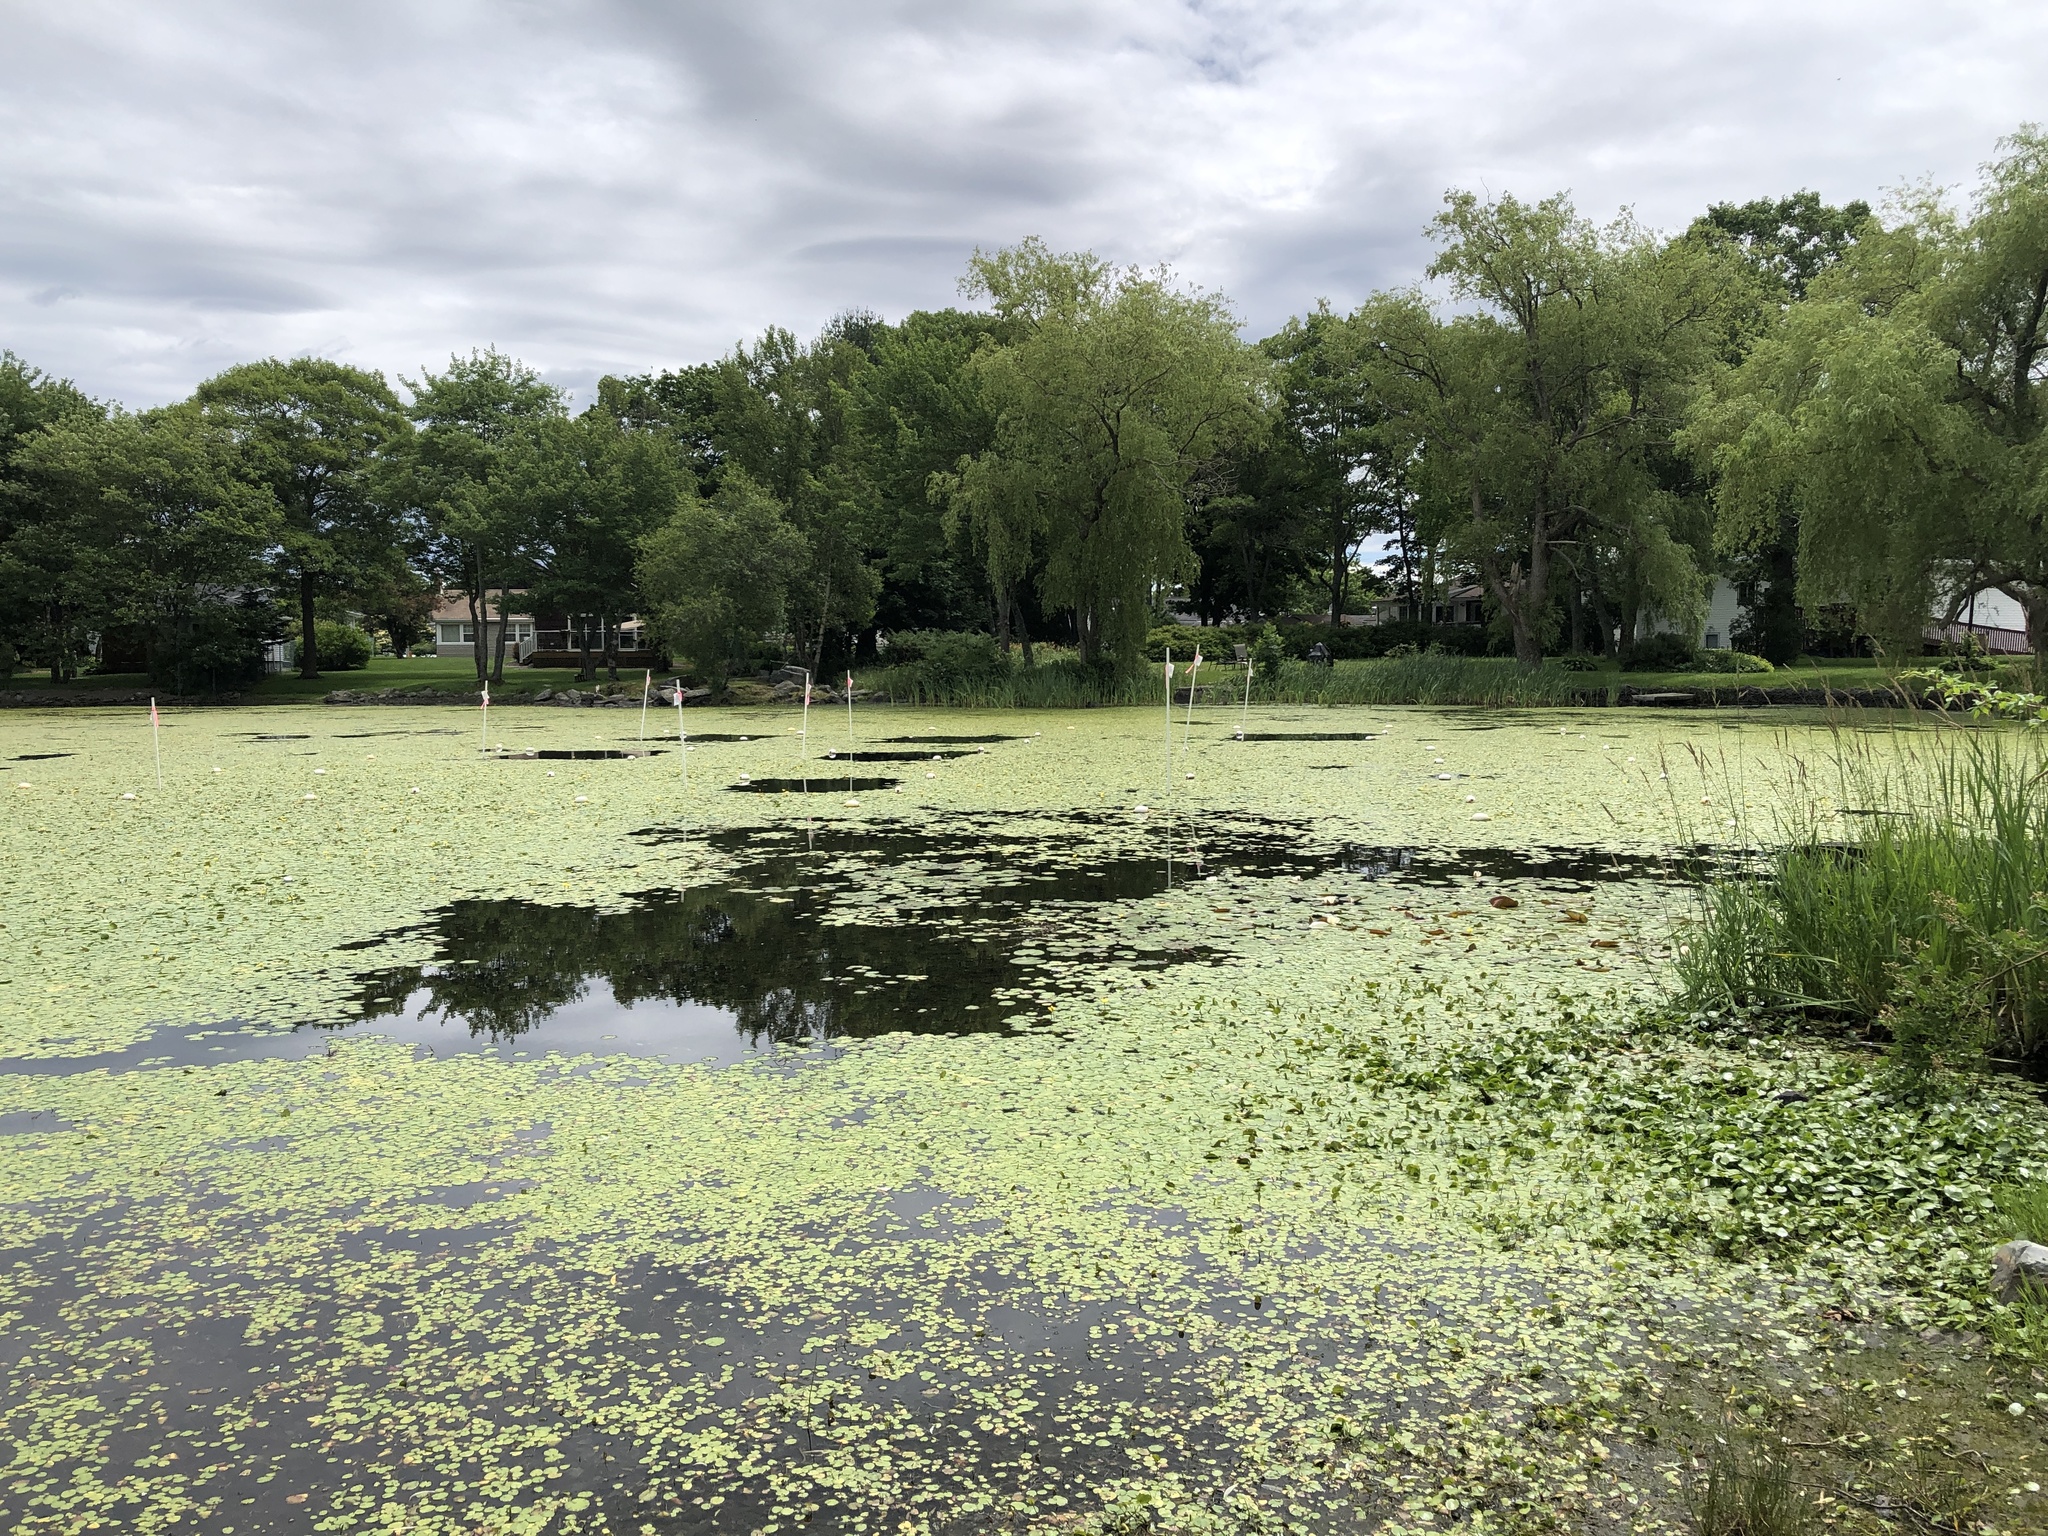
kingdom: Plantae
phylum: Tracheophyta
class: Magnoliopsida
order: Asterales
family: Menyanthaceae
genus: Nymphoides
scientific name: Nymphoides peltata
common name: Fringed water-lily
